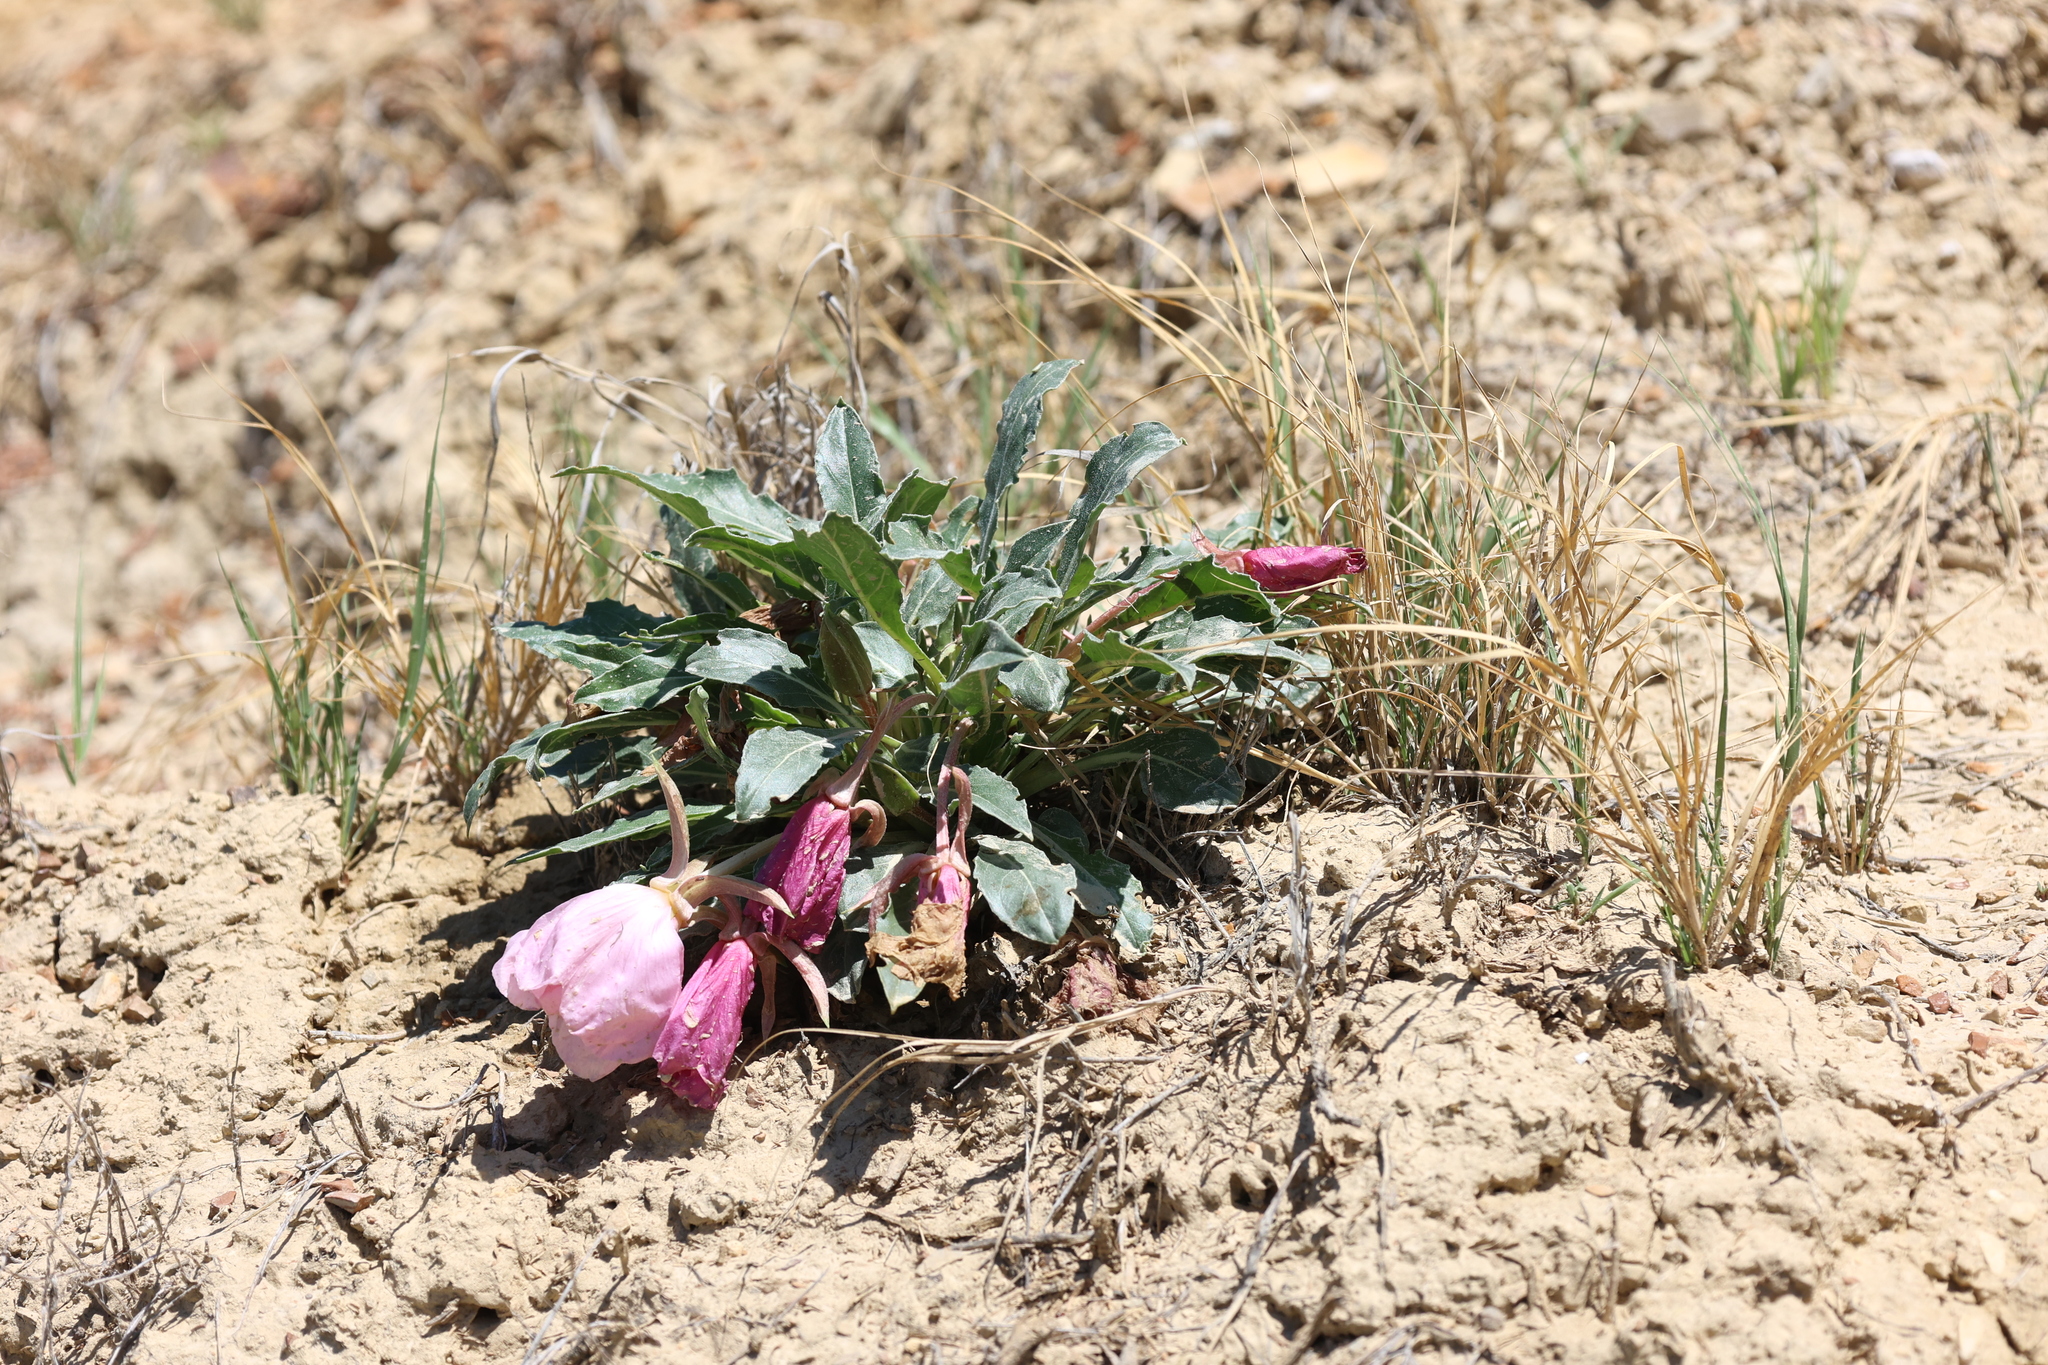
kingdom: Plantae
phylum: Tracheophyta
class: Magnoliopsida
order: Myrtales
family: Onagraceae
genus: Oenothera
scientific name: Oenothera cespitosa
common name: Tufted evening-primrose
